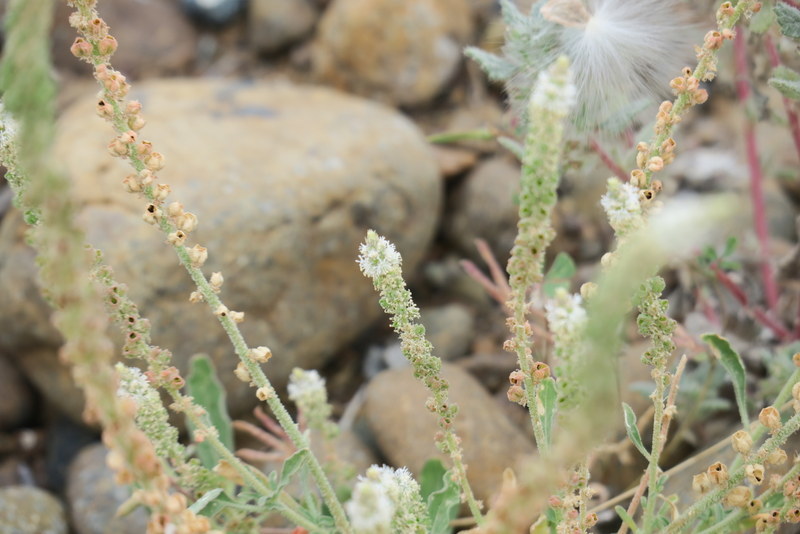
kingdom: Plantae
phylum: Tracheophyta
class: Magnoliopsida
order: Brassicales
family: Resedaceae
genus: Reseda
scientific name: Reseda aucheri
